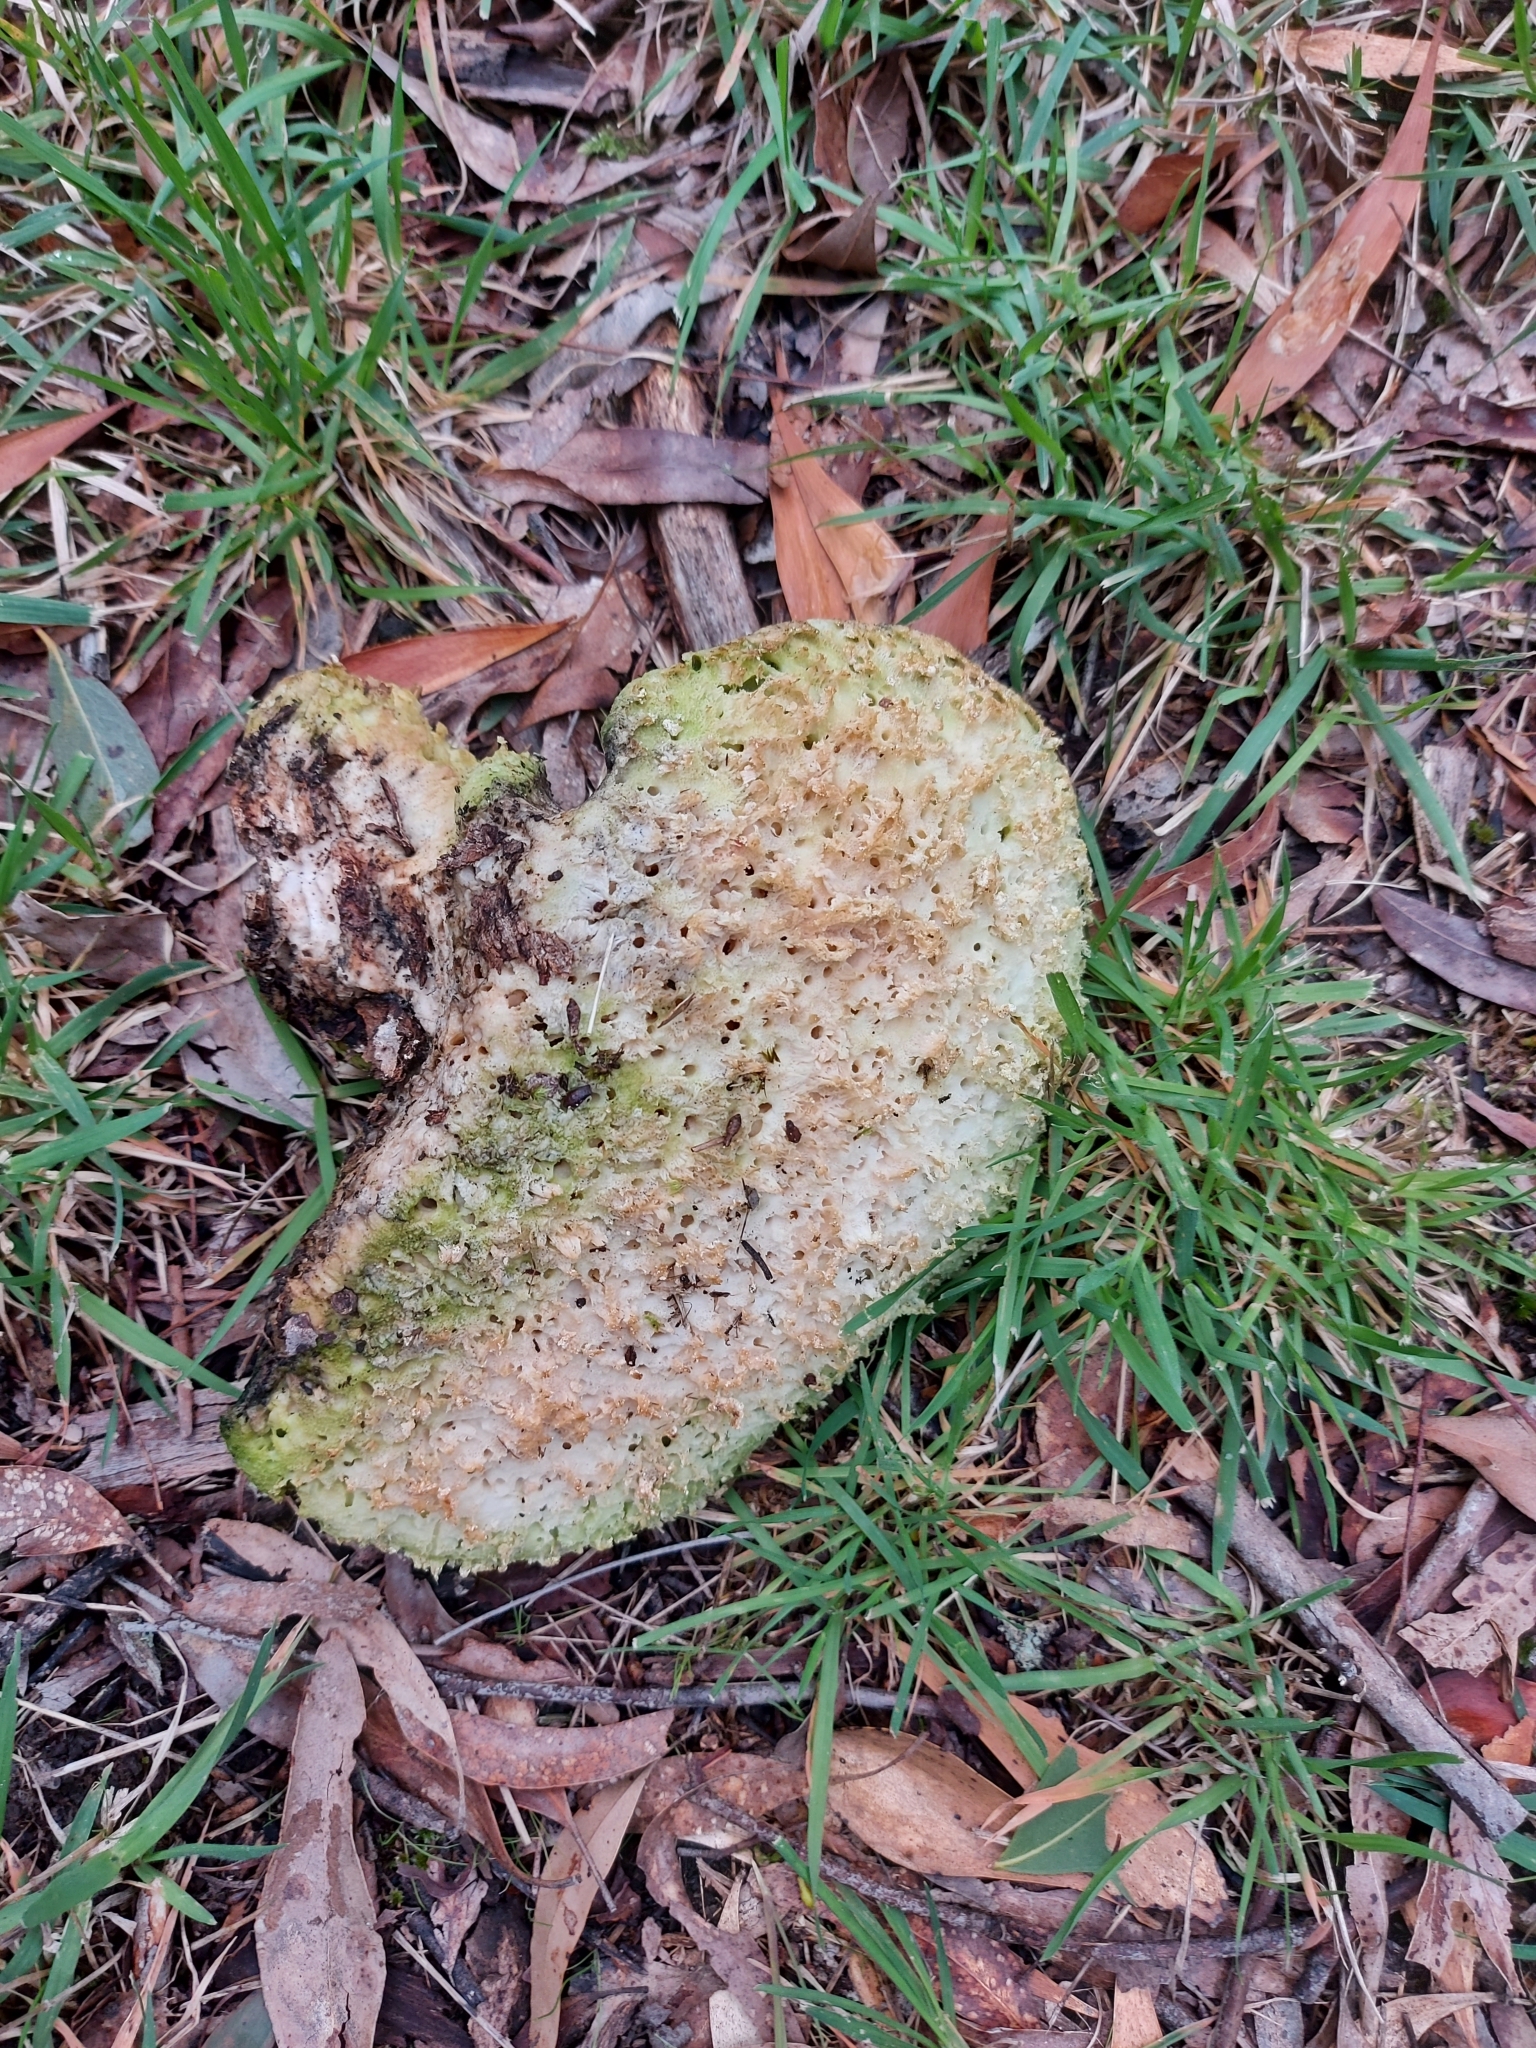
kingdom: Fungi
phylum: Basidiomycota
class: Agaricomycetes
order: Polyporales
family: Laetiporaceae
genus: Laetiporus
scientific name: Laetiporus portentosus
